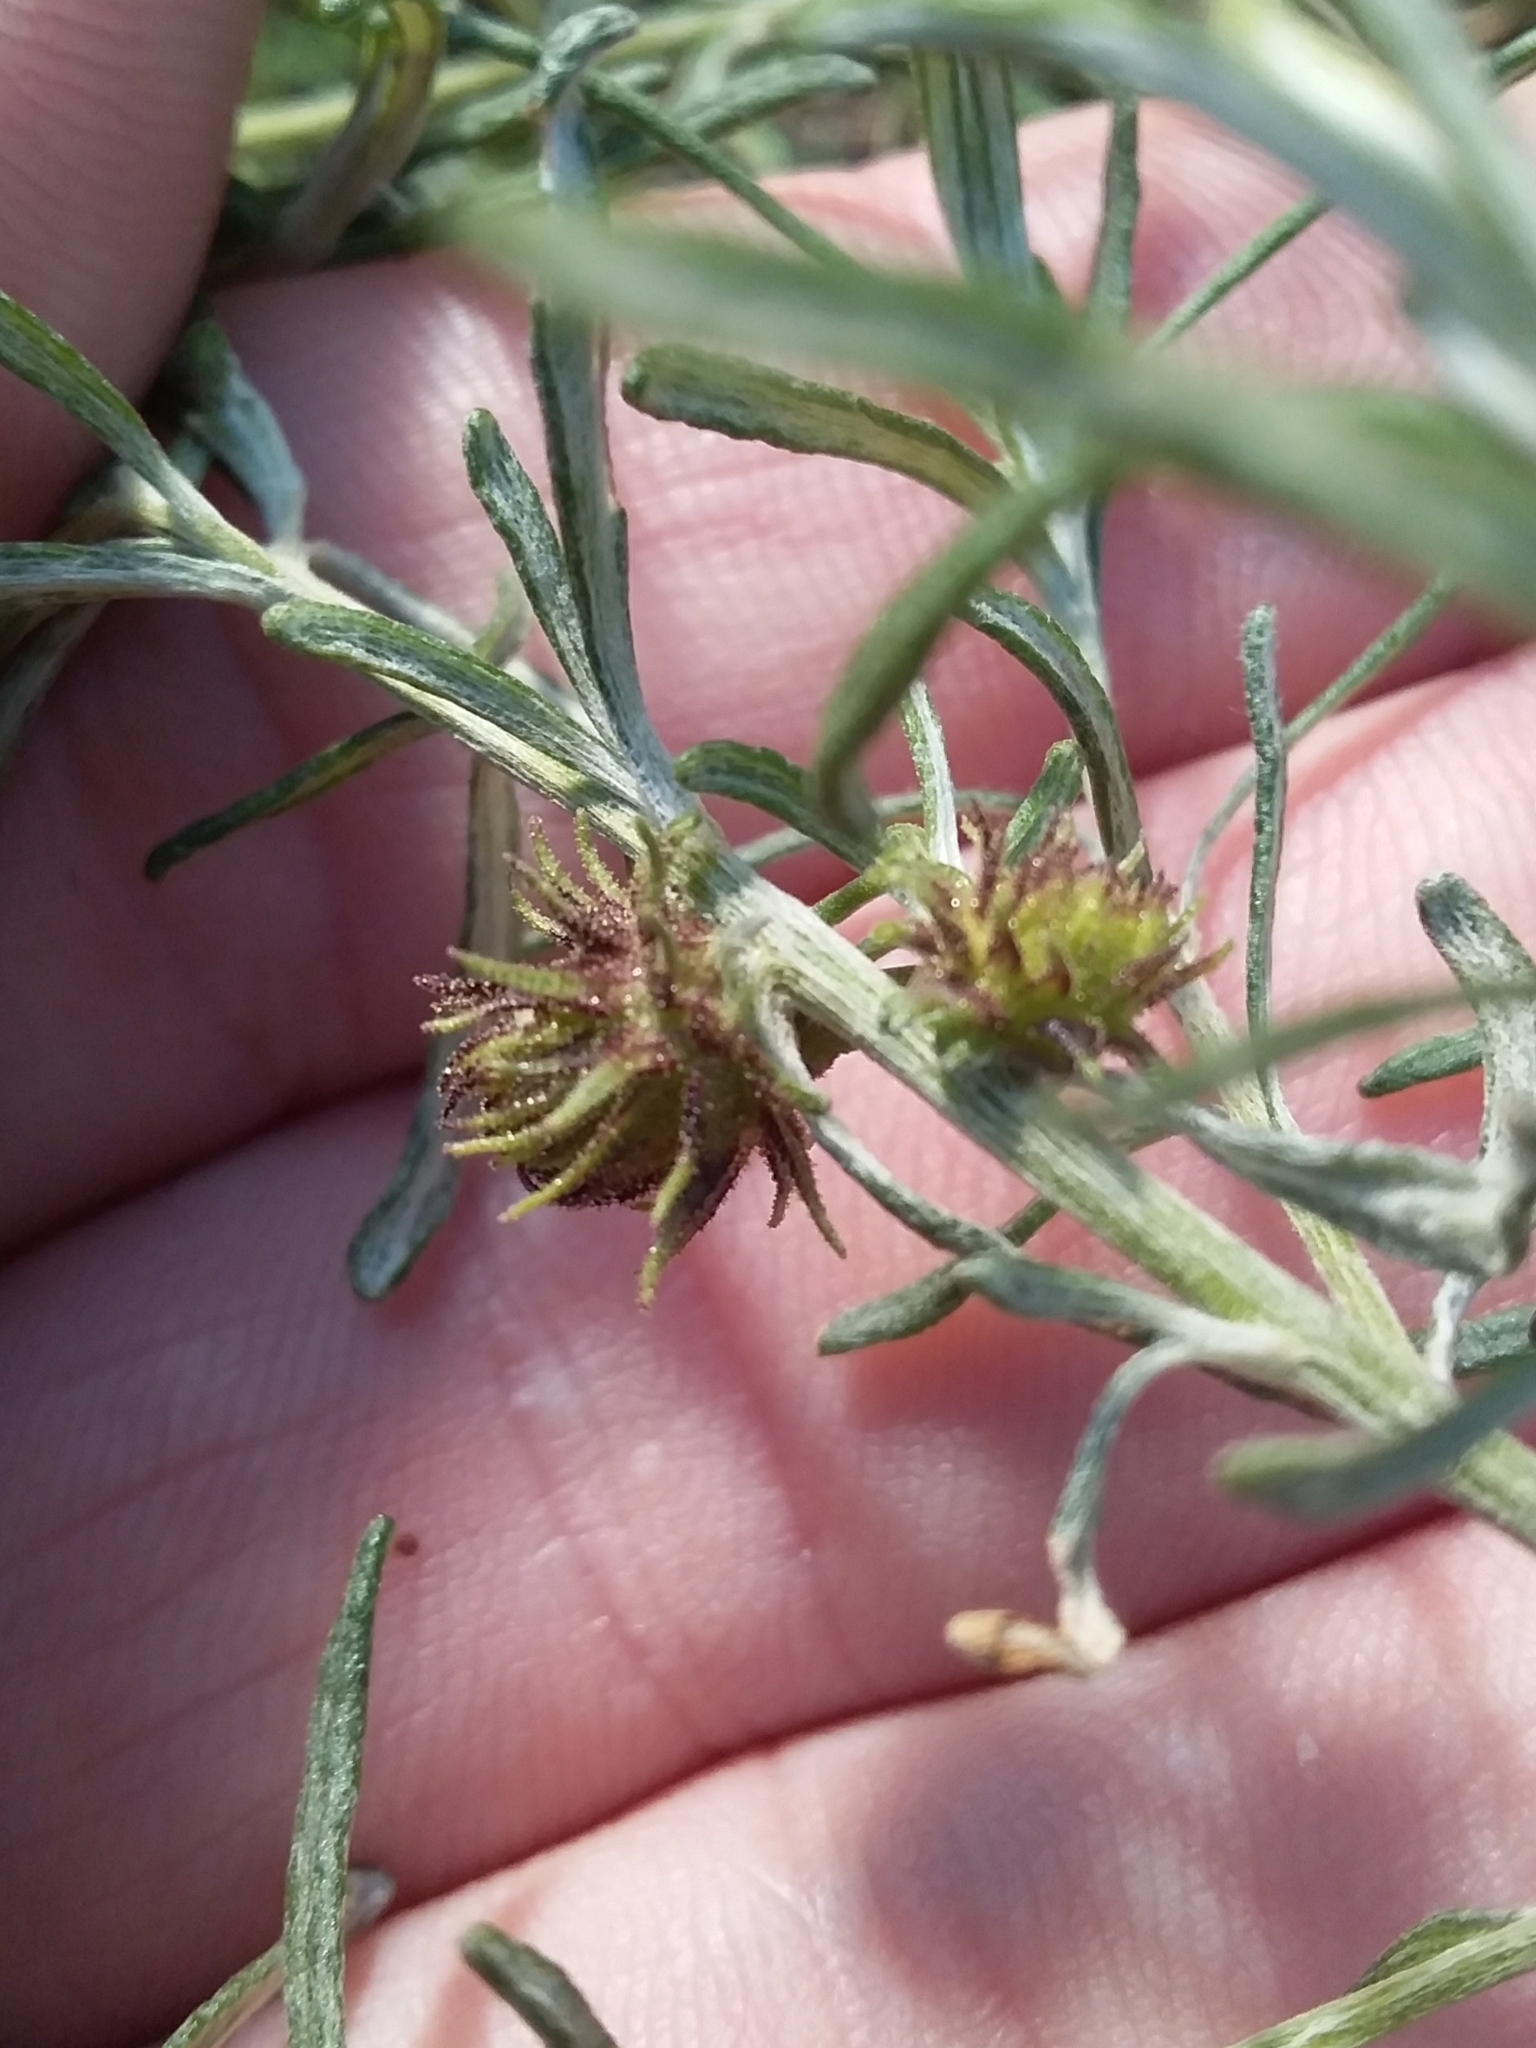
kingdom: Animalia
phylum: Arthropoda
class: Insecta
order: Diptera
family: Cecidomyiidae
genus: Trigonomyia
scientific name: Trigonomyia ananas
